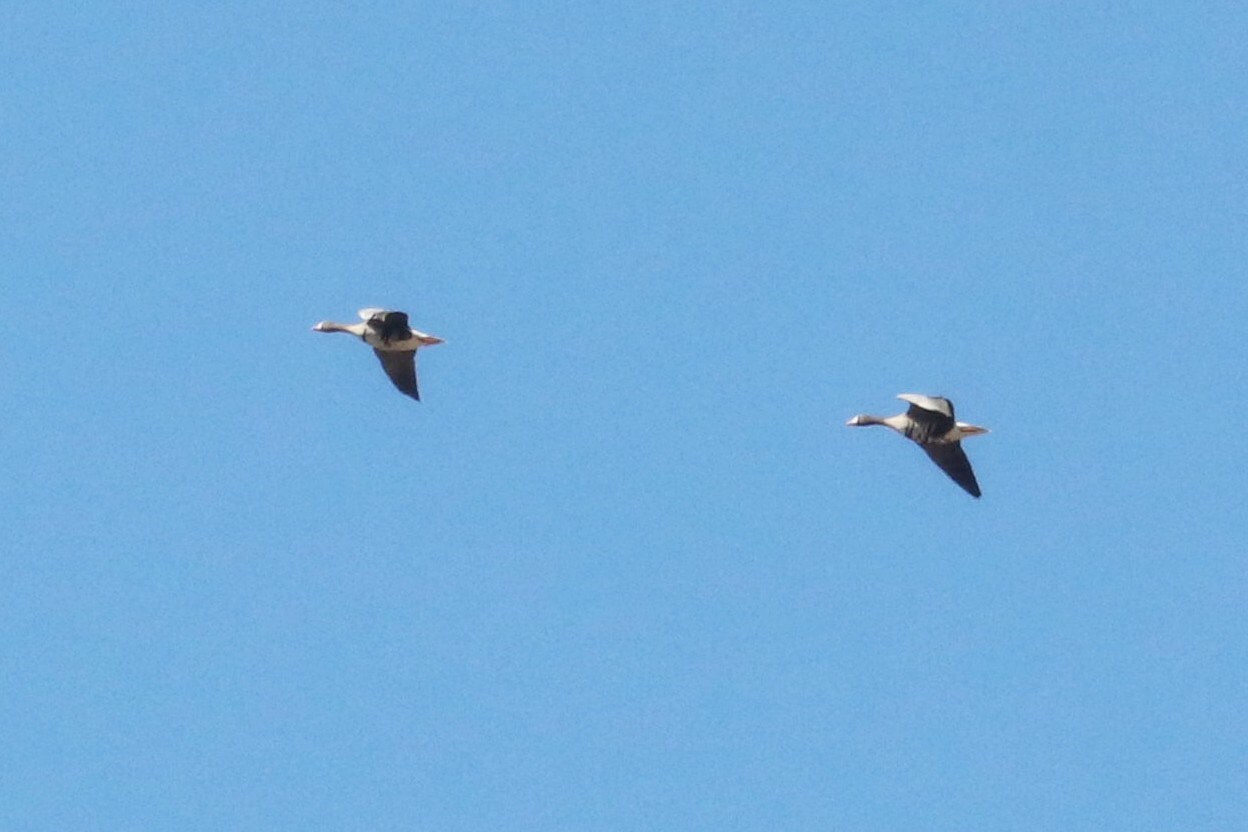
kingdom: Animalia
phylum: Chordata
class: Aves
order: Anseriformes
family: Anatidae
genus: Anser
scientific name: Anser albifrons
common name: Greater white-fronted goose
